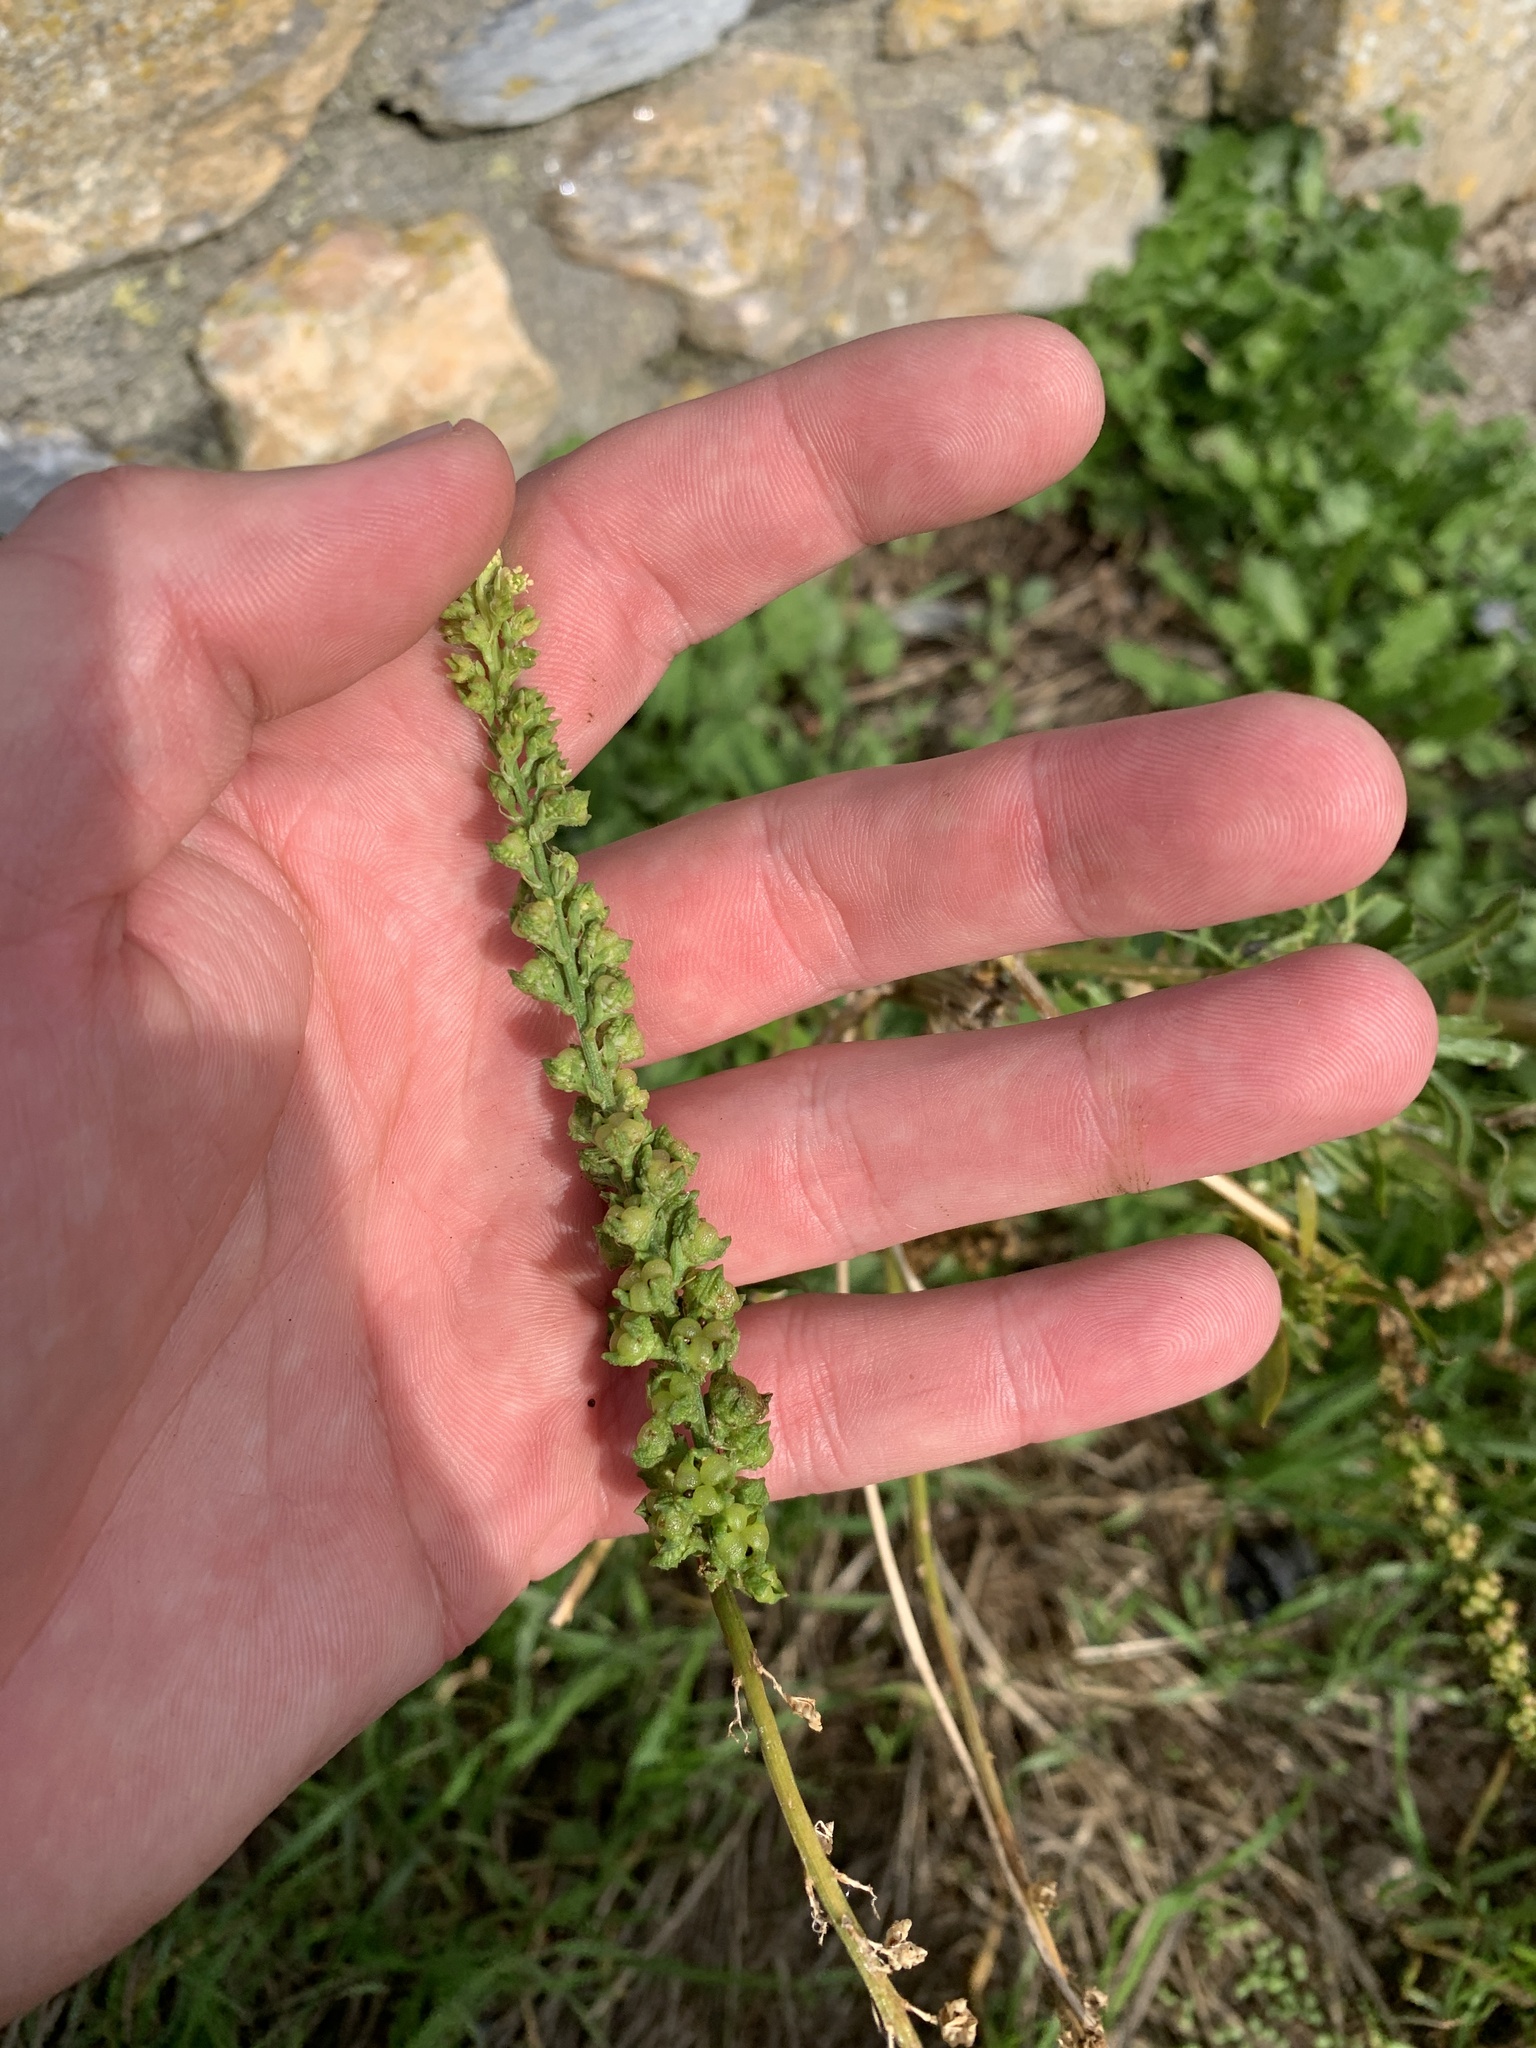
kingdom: Plantae
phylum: Tracheophyta
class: Magnoliopsida
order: Brassicales
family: Resedaceae
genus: Reseda
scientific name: Reseda luteola
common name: Weld
